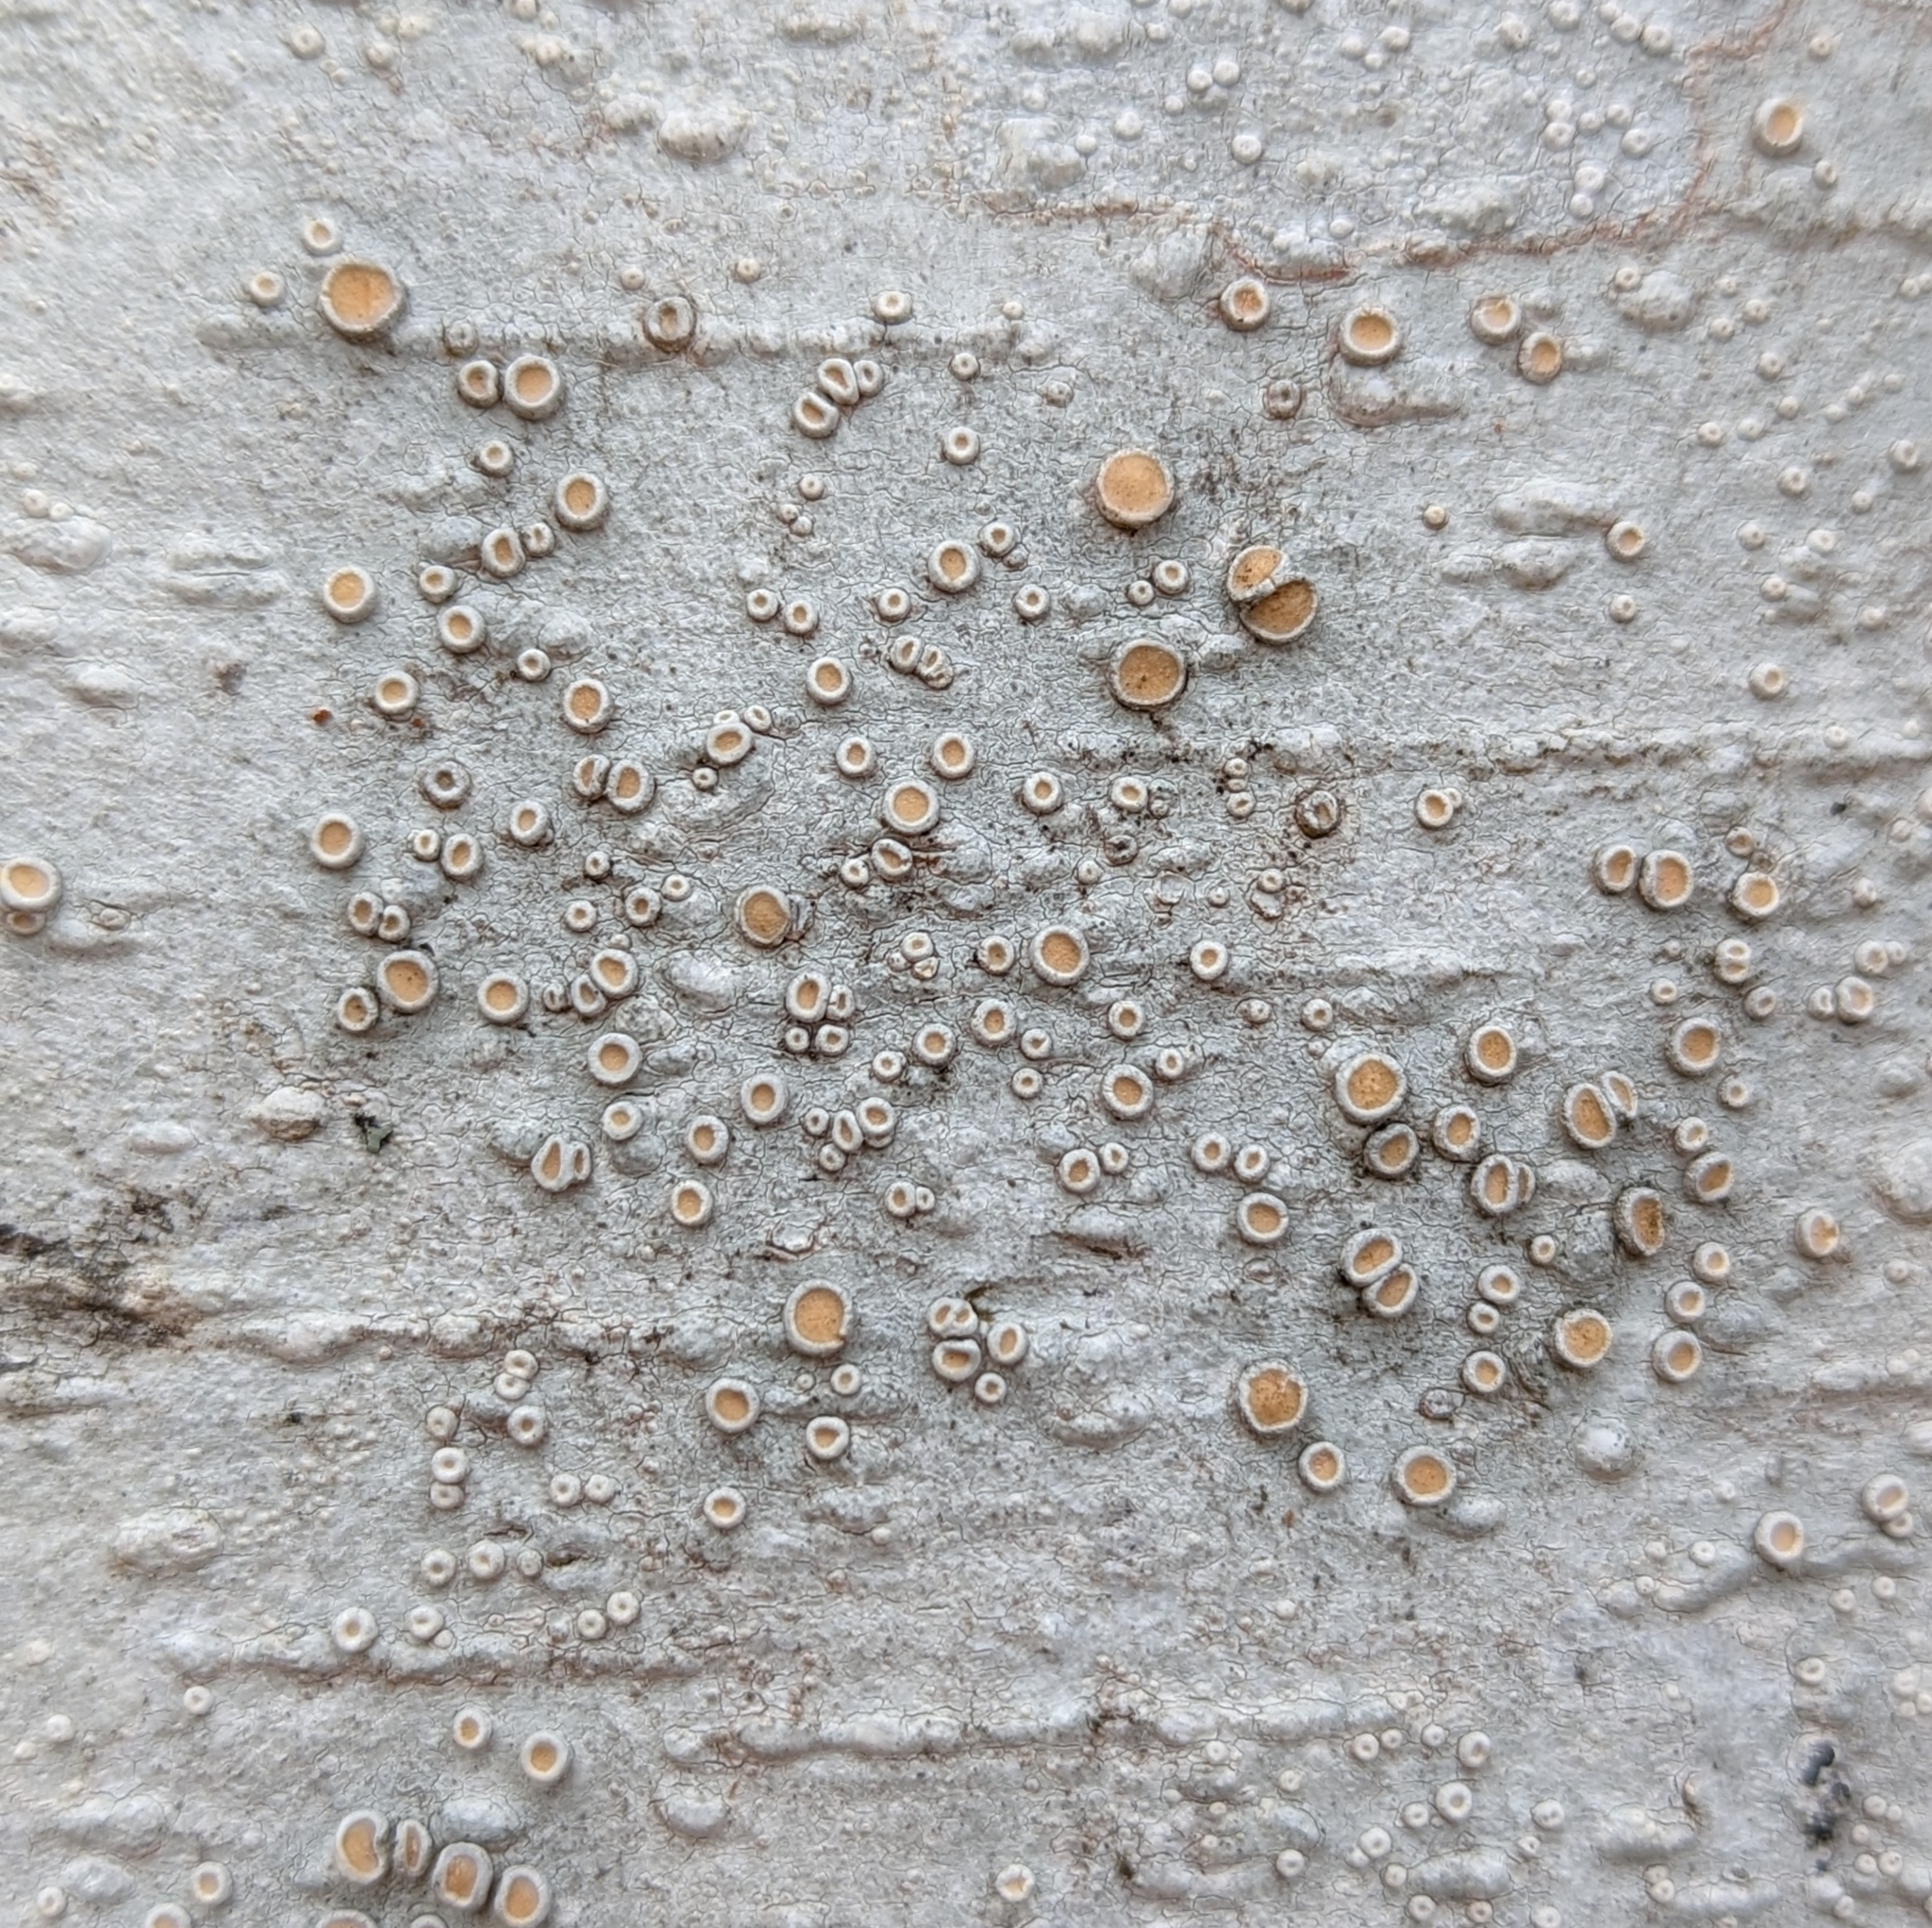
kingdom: Fungi
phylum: Ascomycota
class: Lecanoromycetes
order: Pertusariales
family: Ochrolechiaceae
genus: Ochrolechia
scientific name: Ochrolechia laevigata
